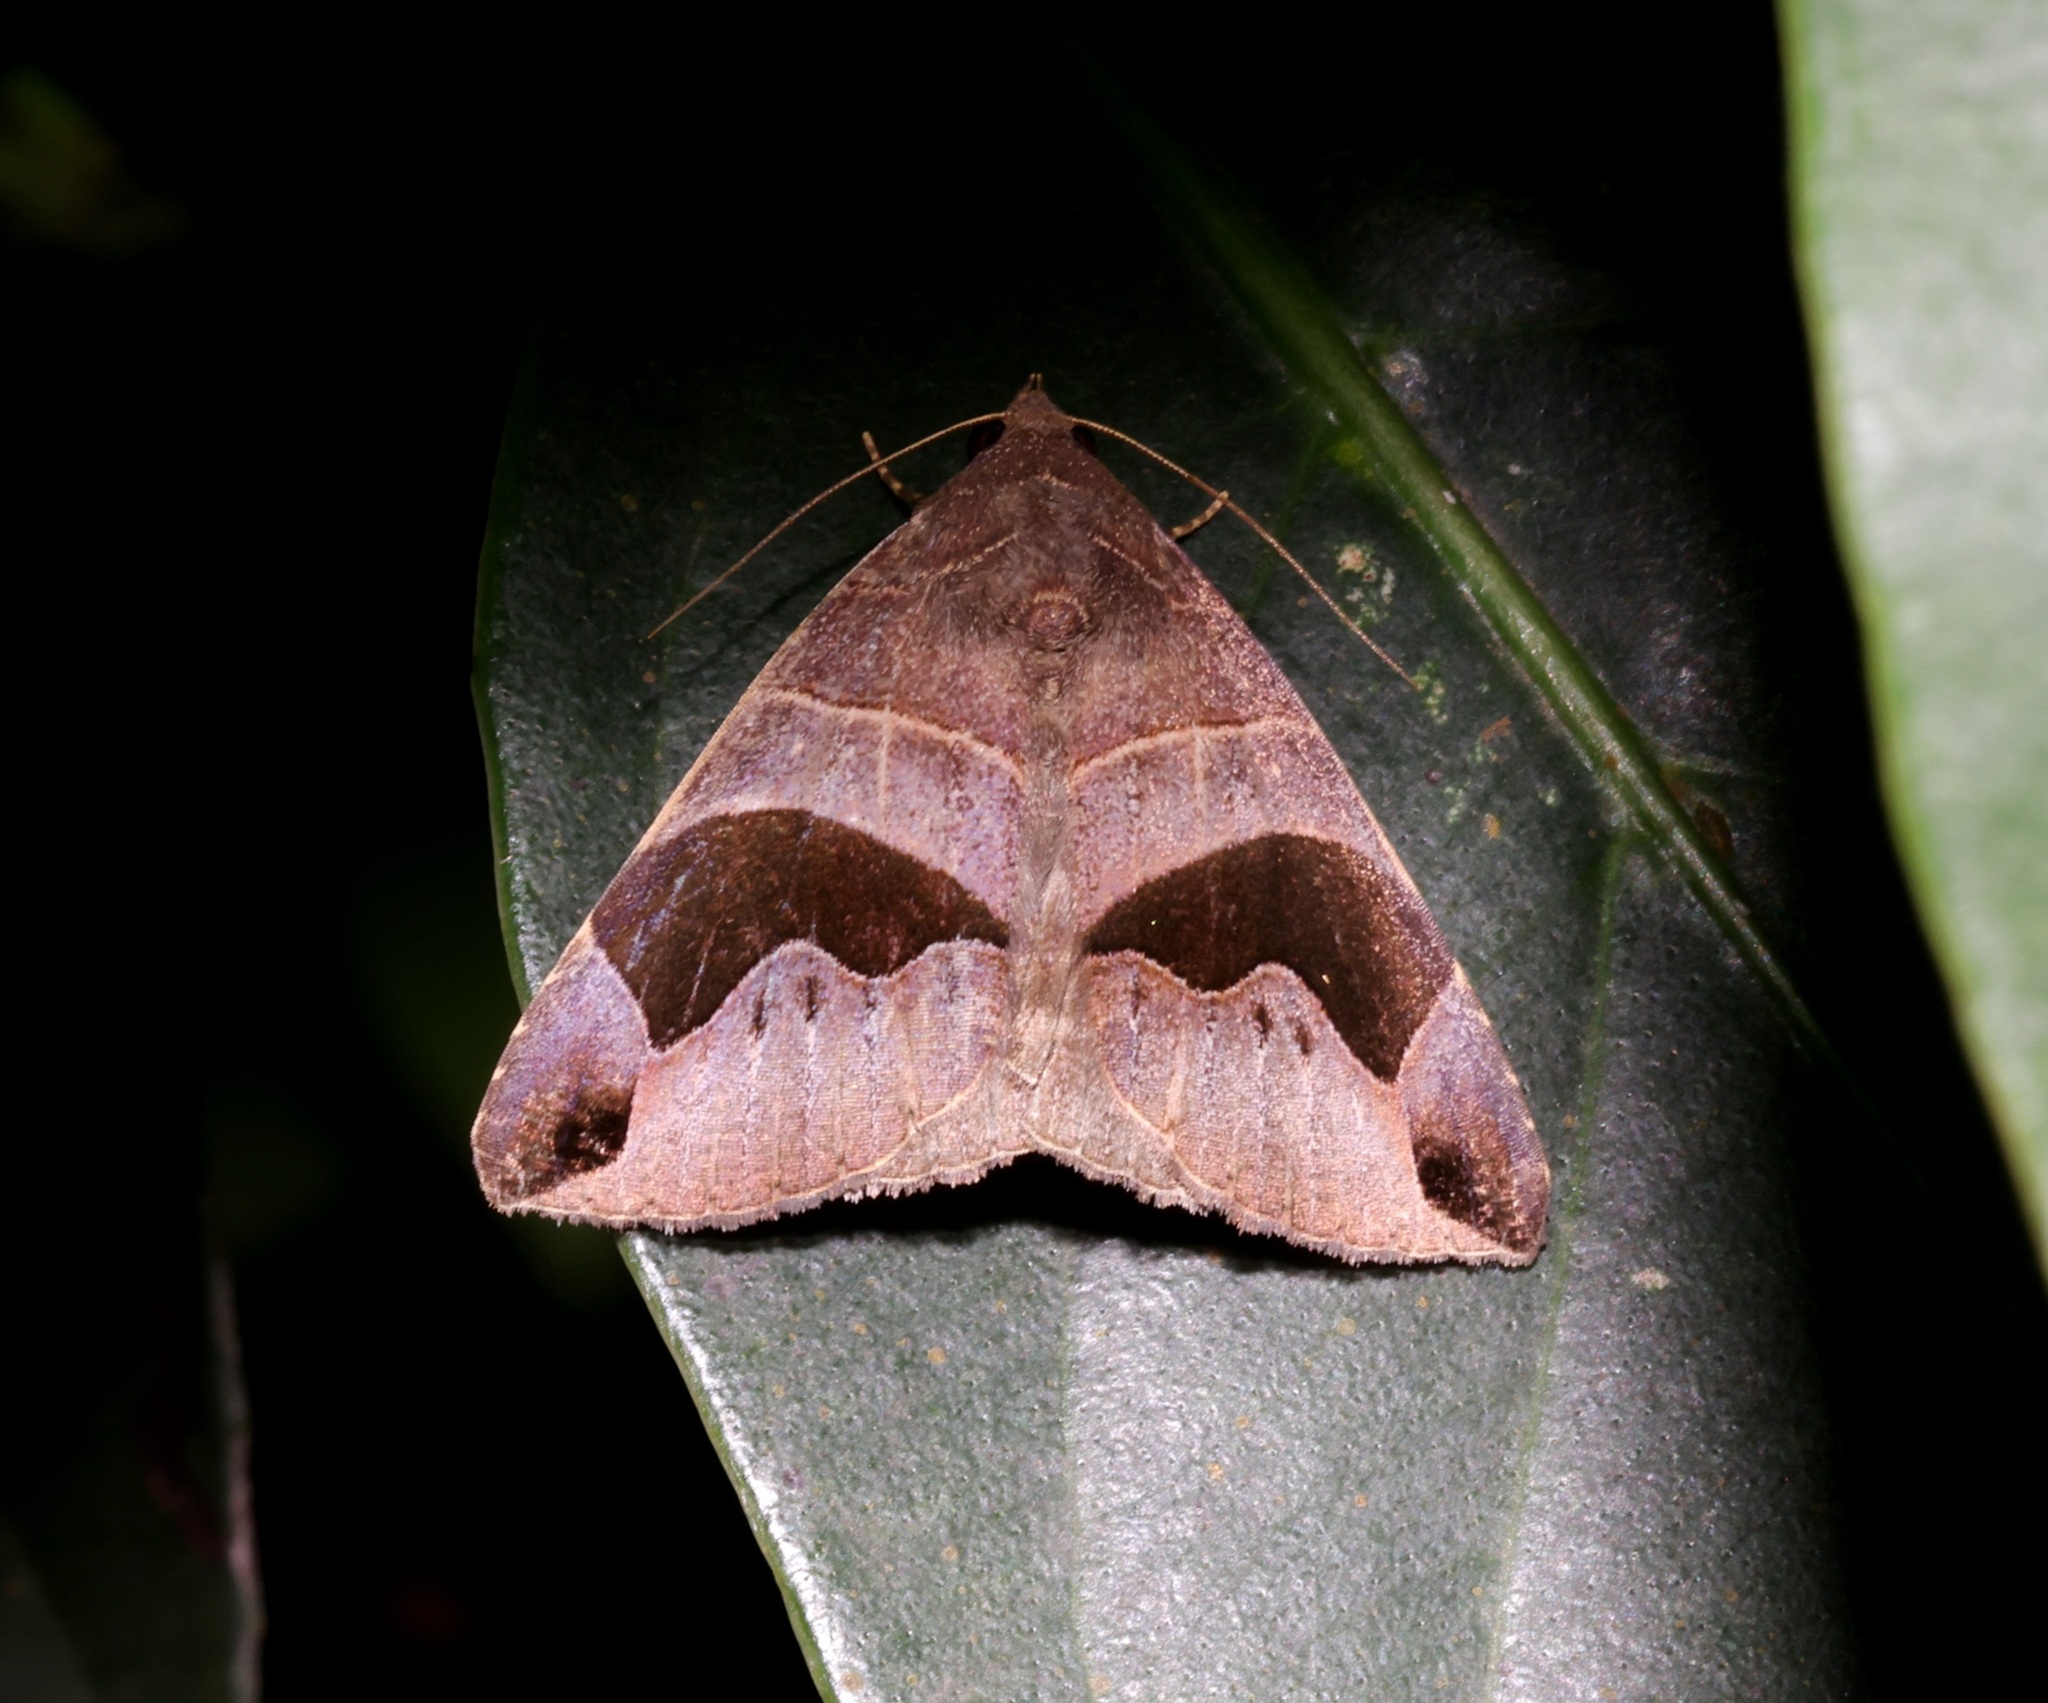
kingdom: Animalia
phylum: Arthropoda
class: Insecta
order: Lepidoptera
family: Erebidae
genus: Bastilla
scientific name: Bastilla joviana
